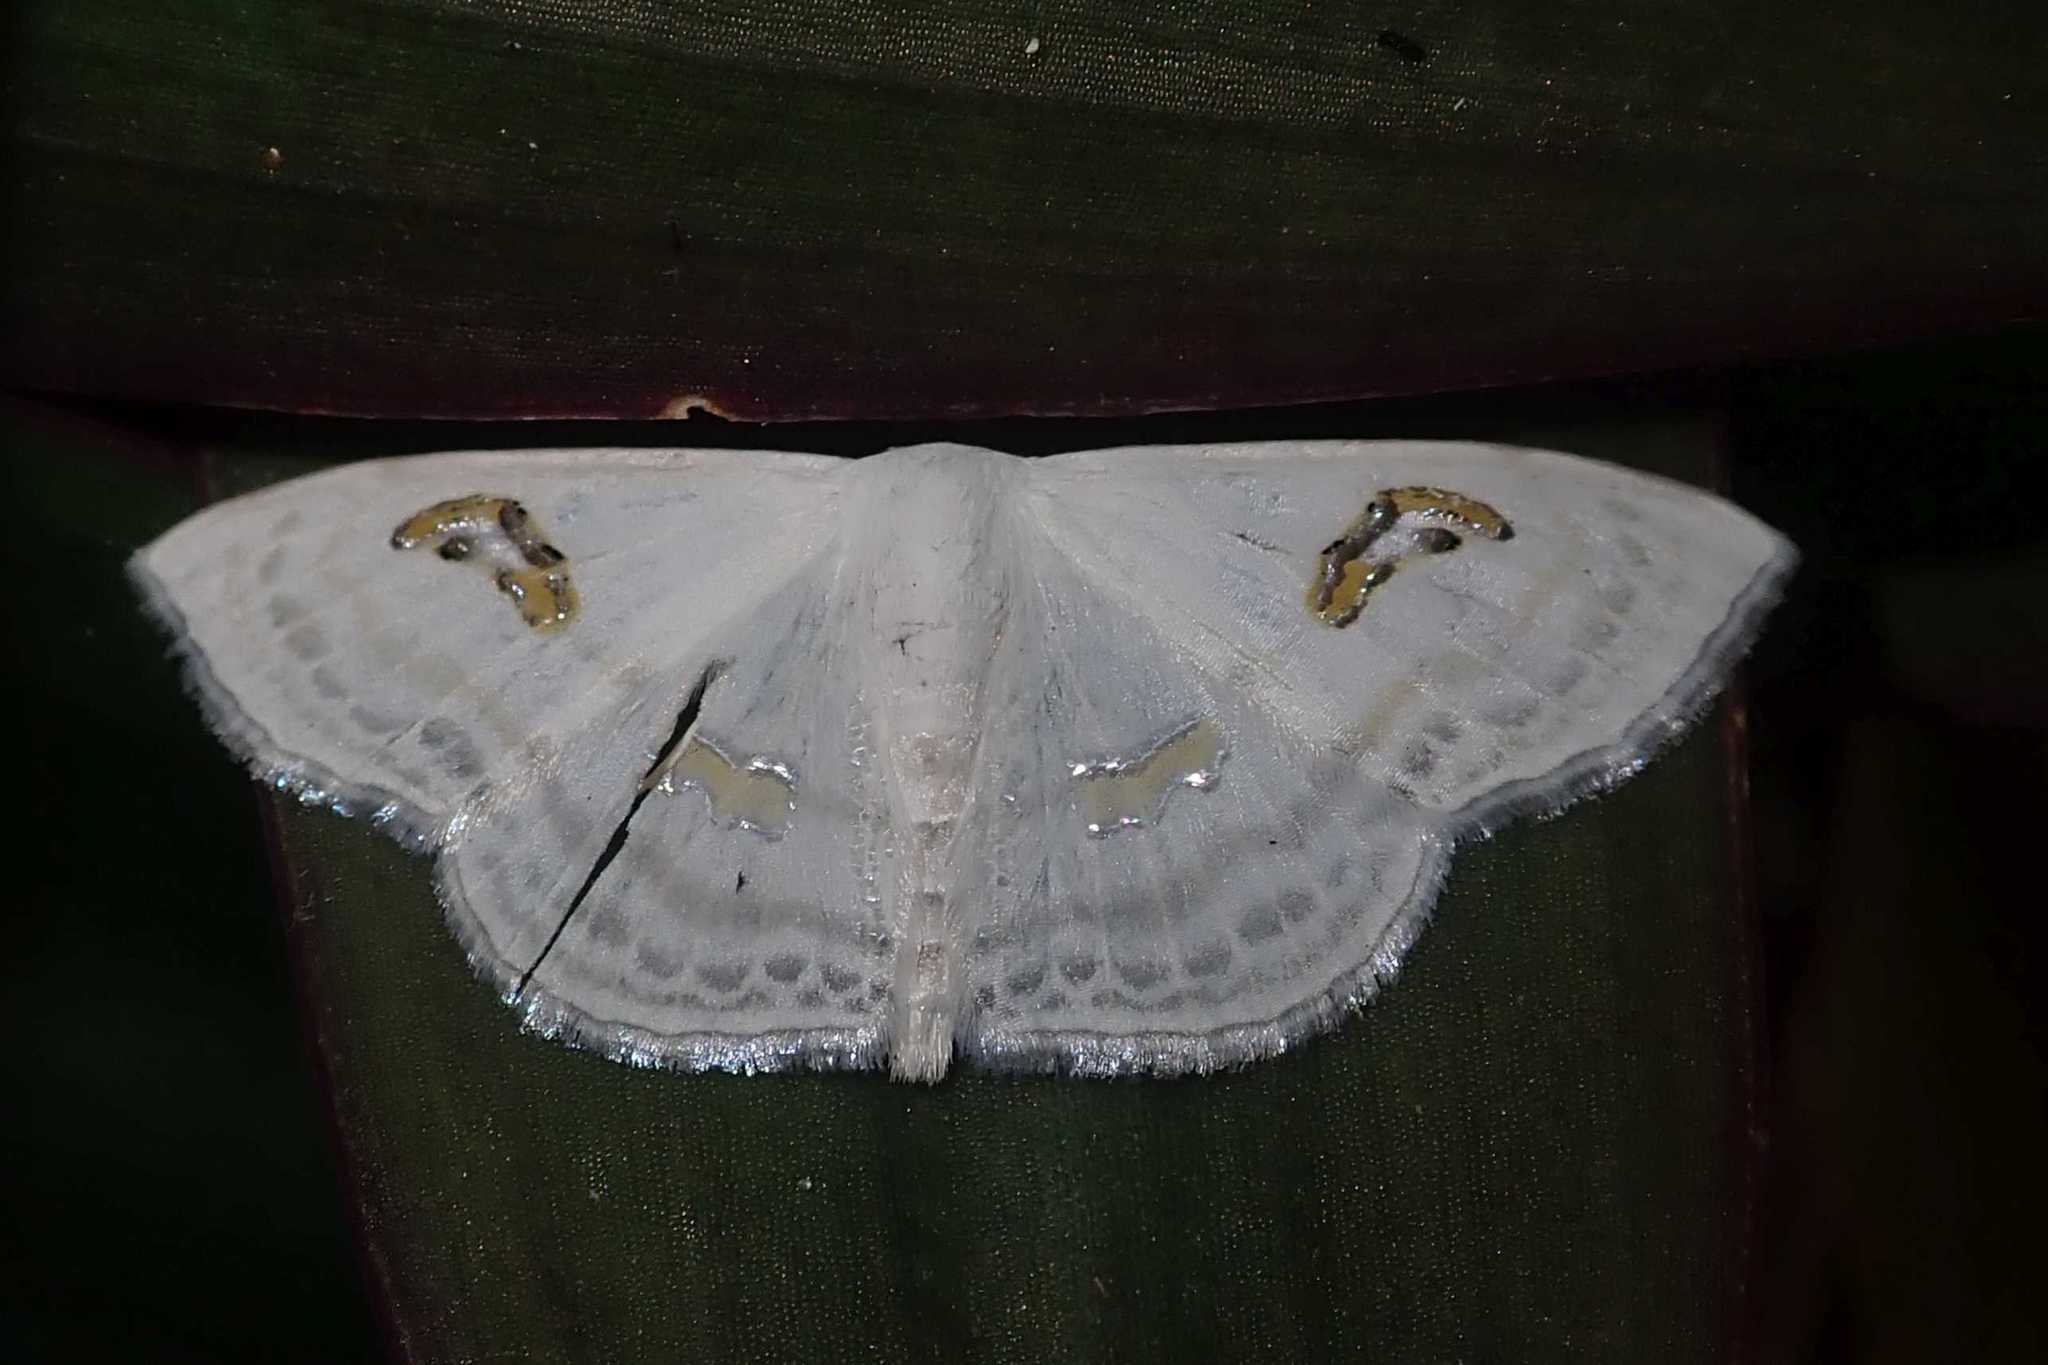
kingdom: Animalia
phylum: Arthropoda
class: Insecta
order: Lepidoptera
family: Geometridae
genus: Problepsis
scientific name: Problepsis digammata
